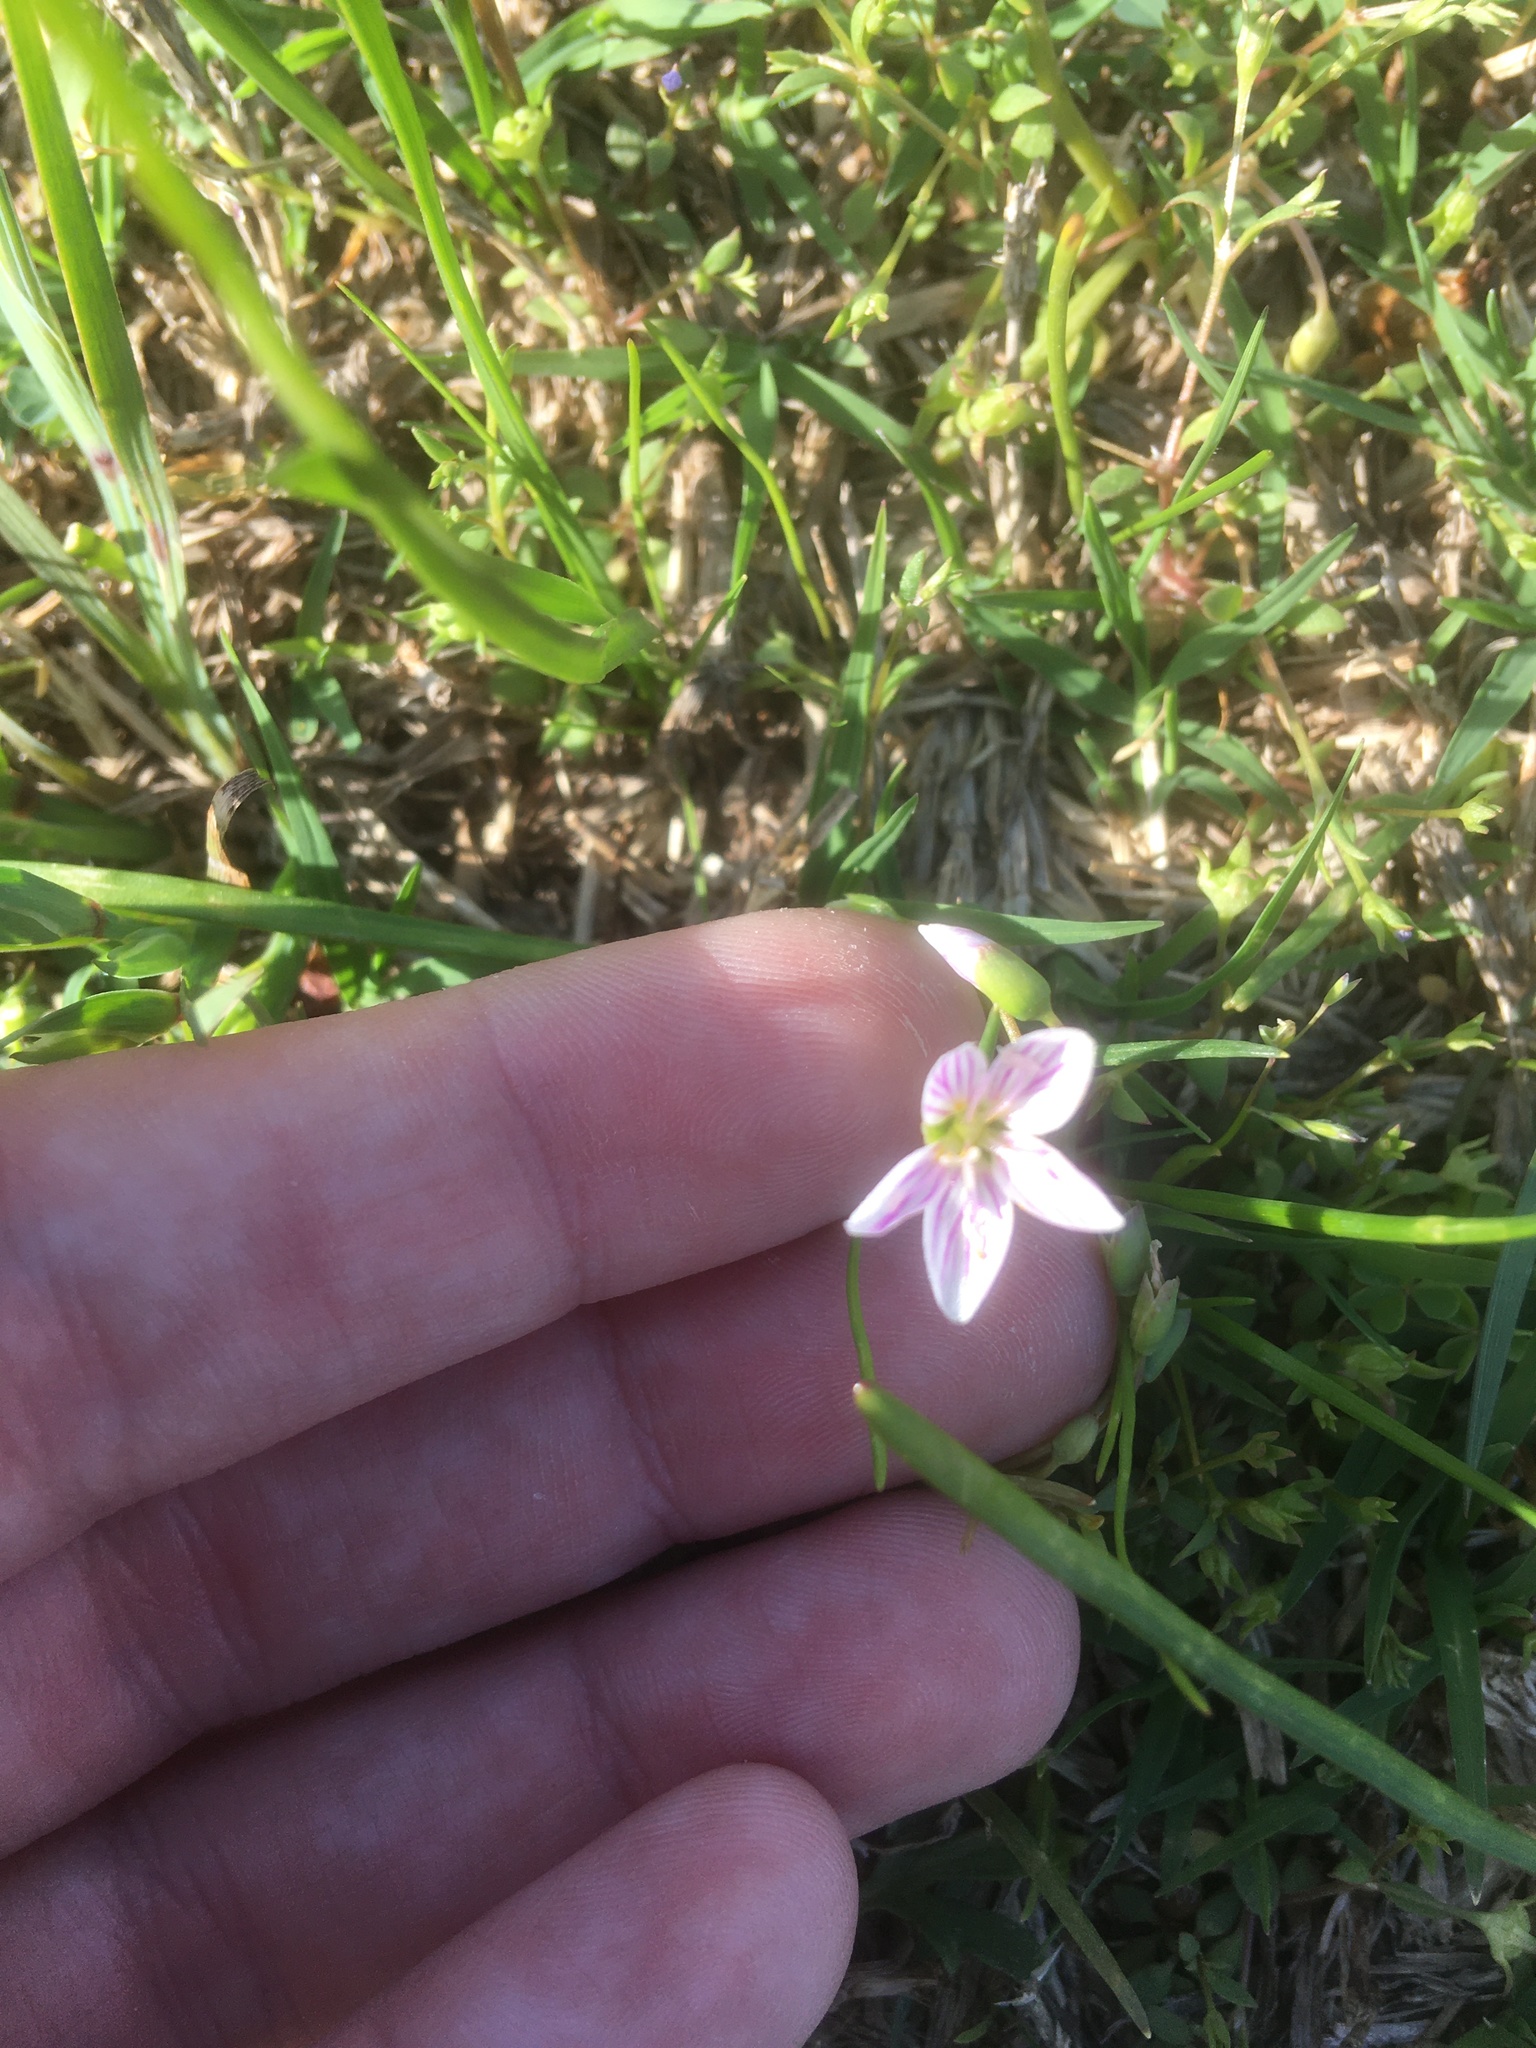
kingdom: Plantae
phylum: Tracheophyta
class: Magnoliopsida
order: Caryophyllales
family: Montiaceae
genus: Claytonia
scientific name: Claytonia virginica
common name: Virginia springbeauty
